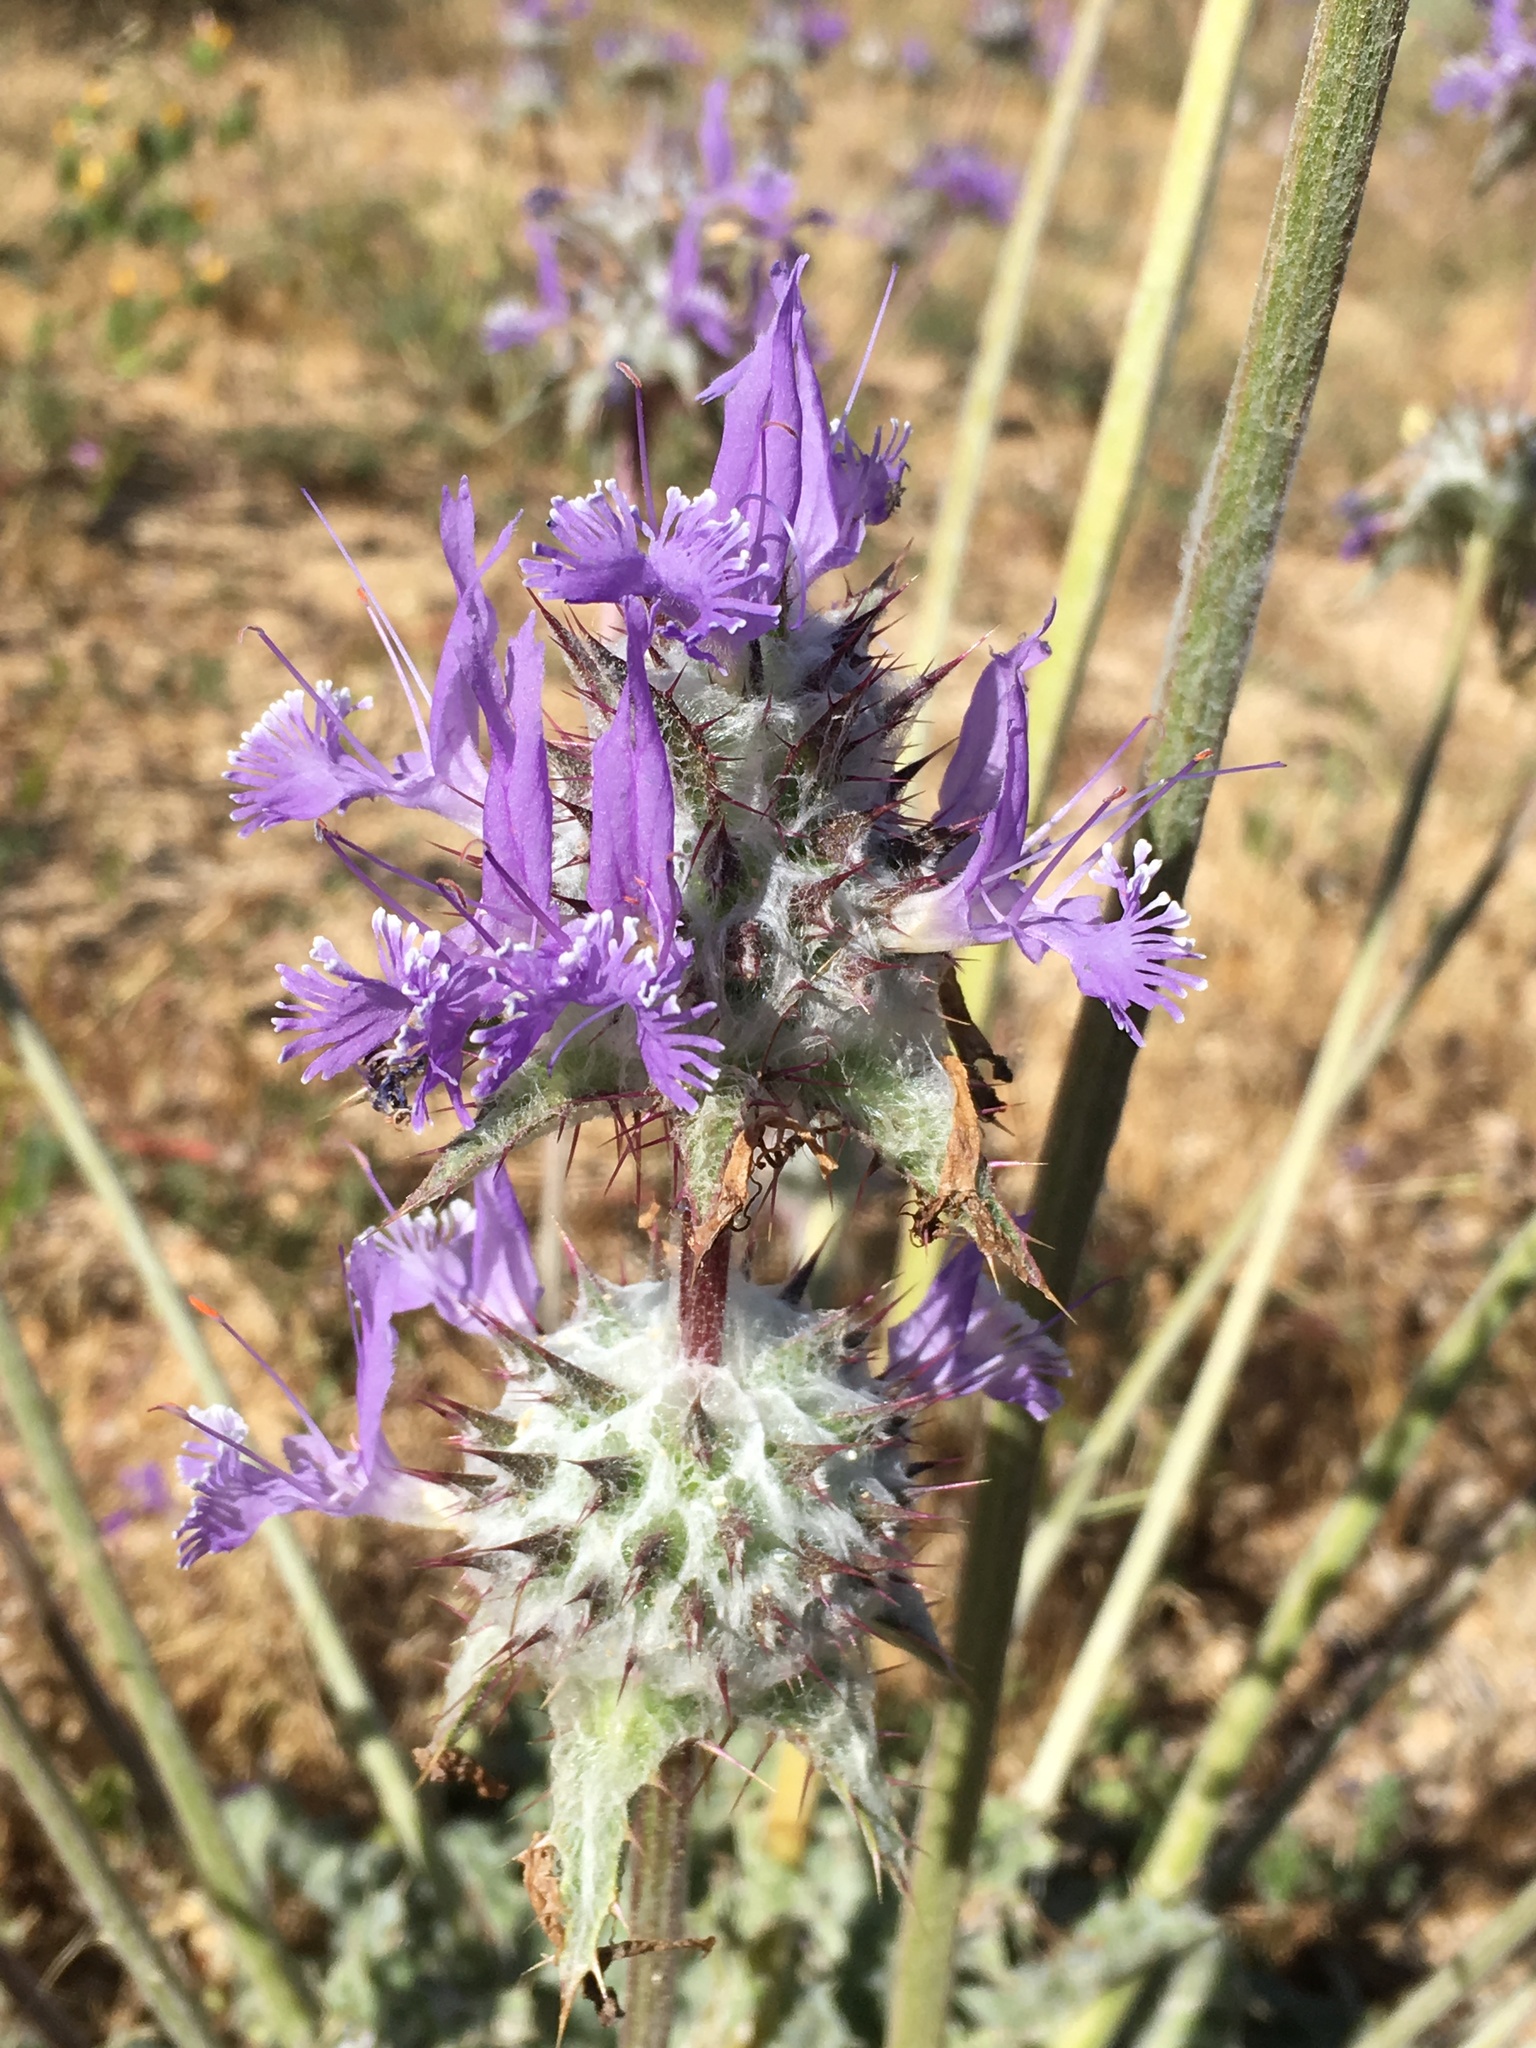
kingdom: Plantae
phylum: Tracheophyta
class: Magnoliopsida
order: Lamiales
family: Lamiaceae
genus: Salvia
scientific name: Salvia carduacea
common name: Thistle sage
